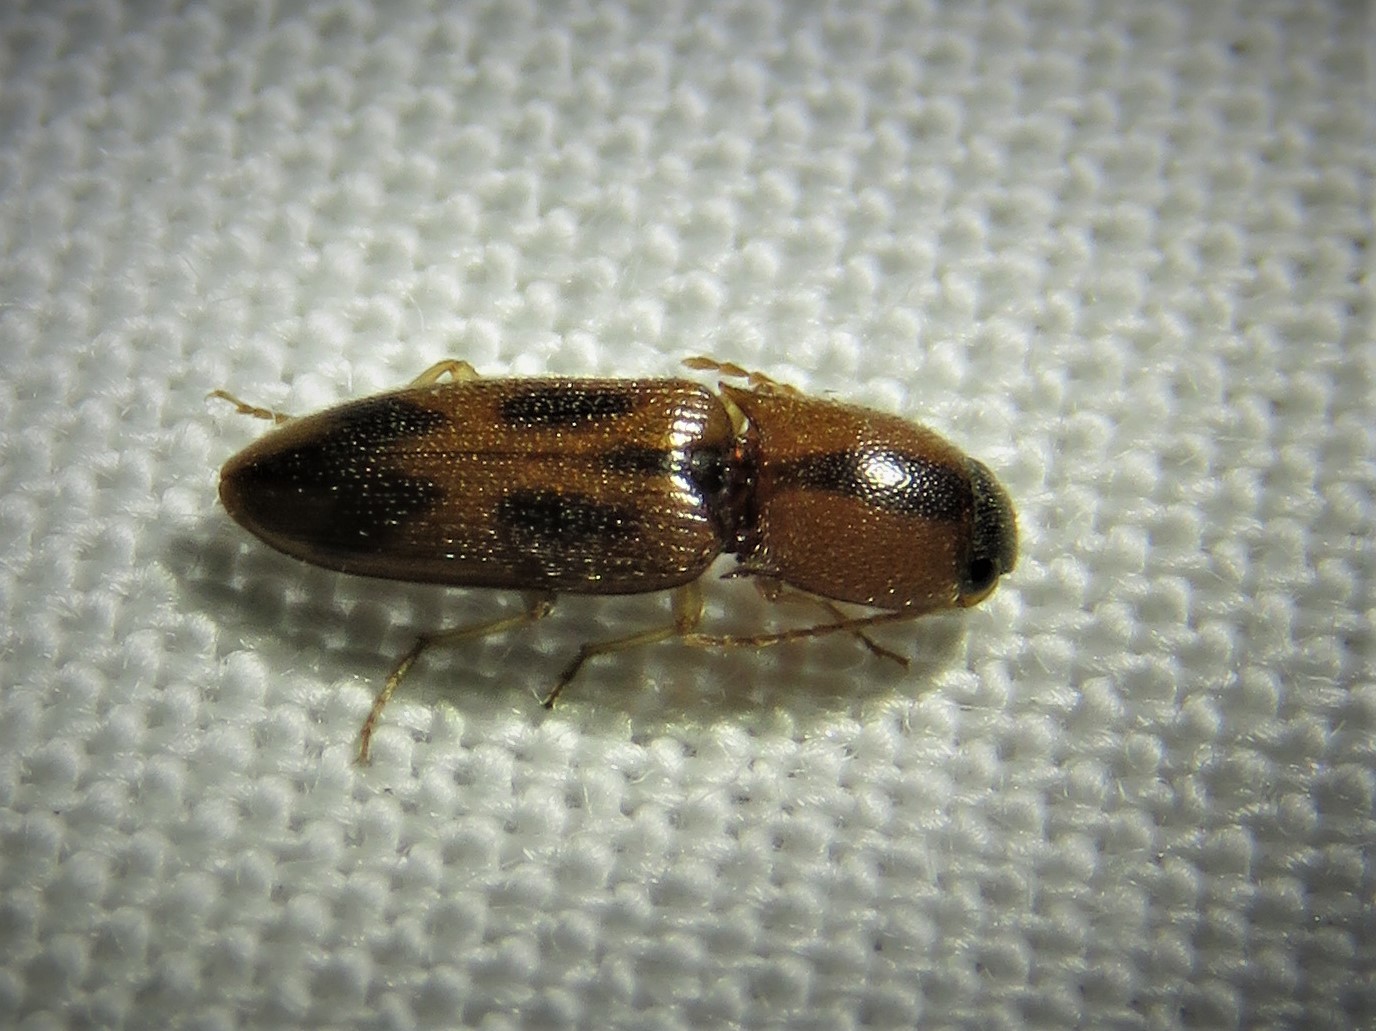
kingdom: Animalia
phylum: Arthropoda
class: Insecta
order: Coleoptera
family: Elateridae
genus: Aeolus
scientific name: Aeolus
